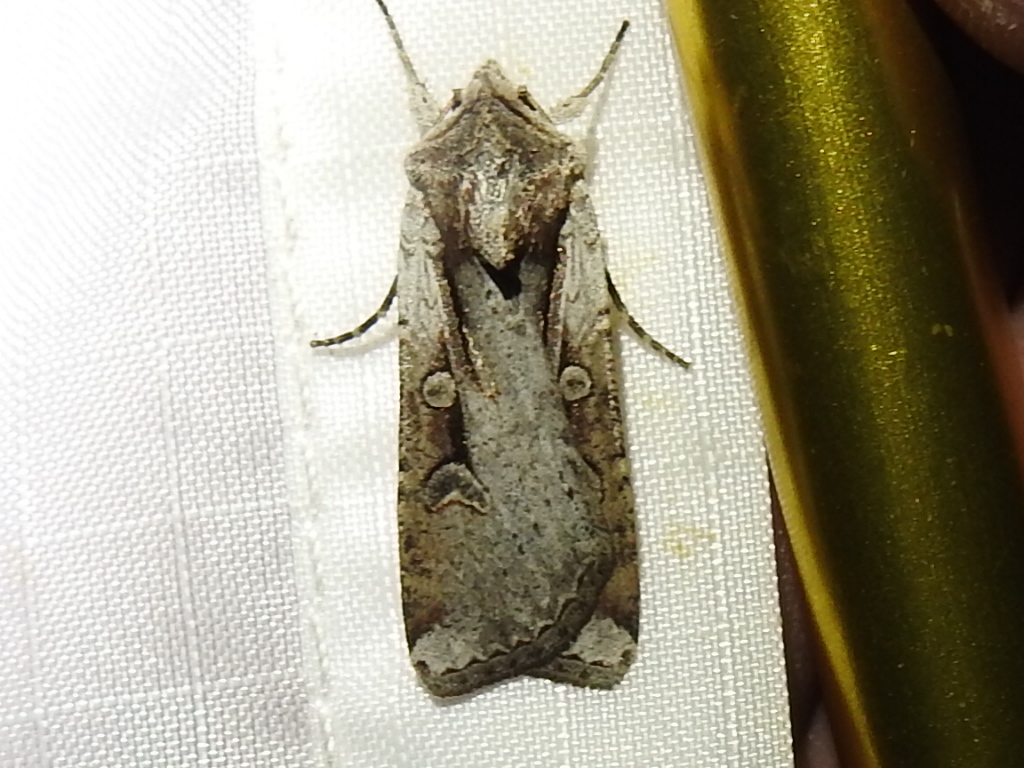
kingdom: Animalia
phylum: Arthropoda
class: Insecta
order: Lepidoptera
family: Noctuidae
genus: Hemieuxoa
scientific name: Hemieuxoa rudens
